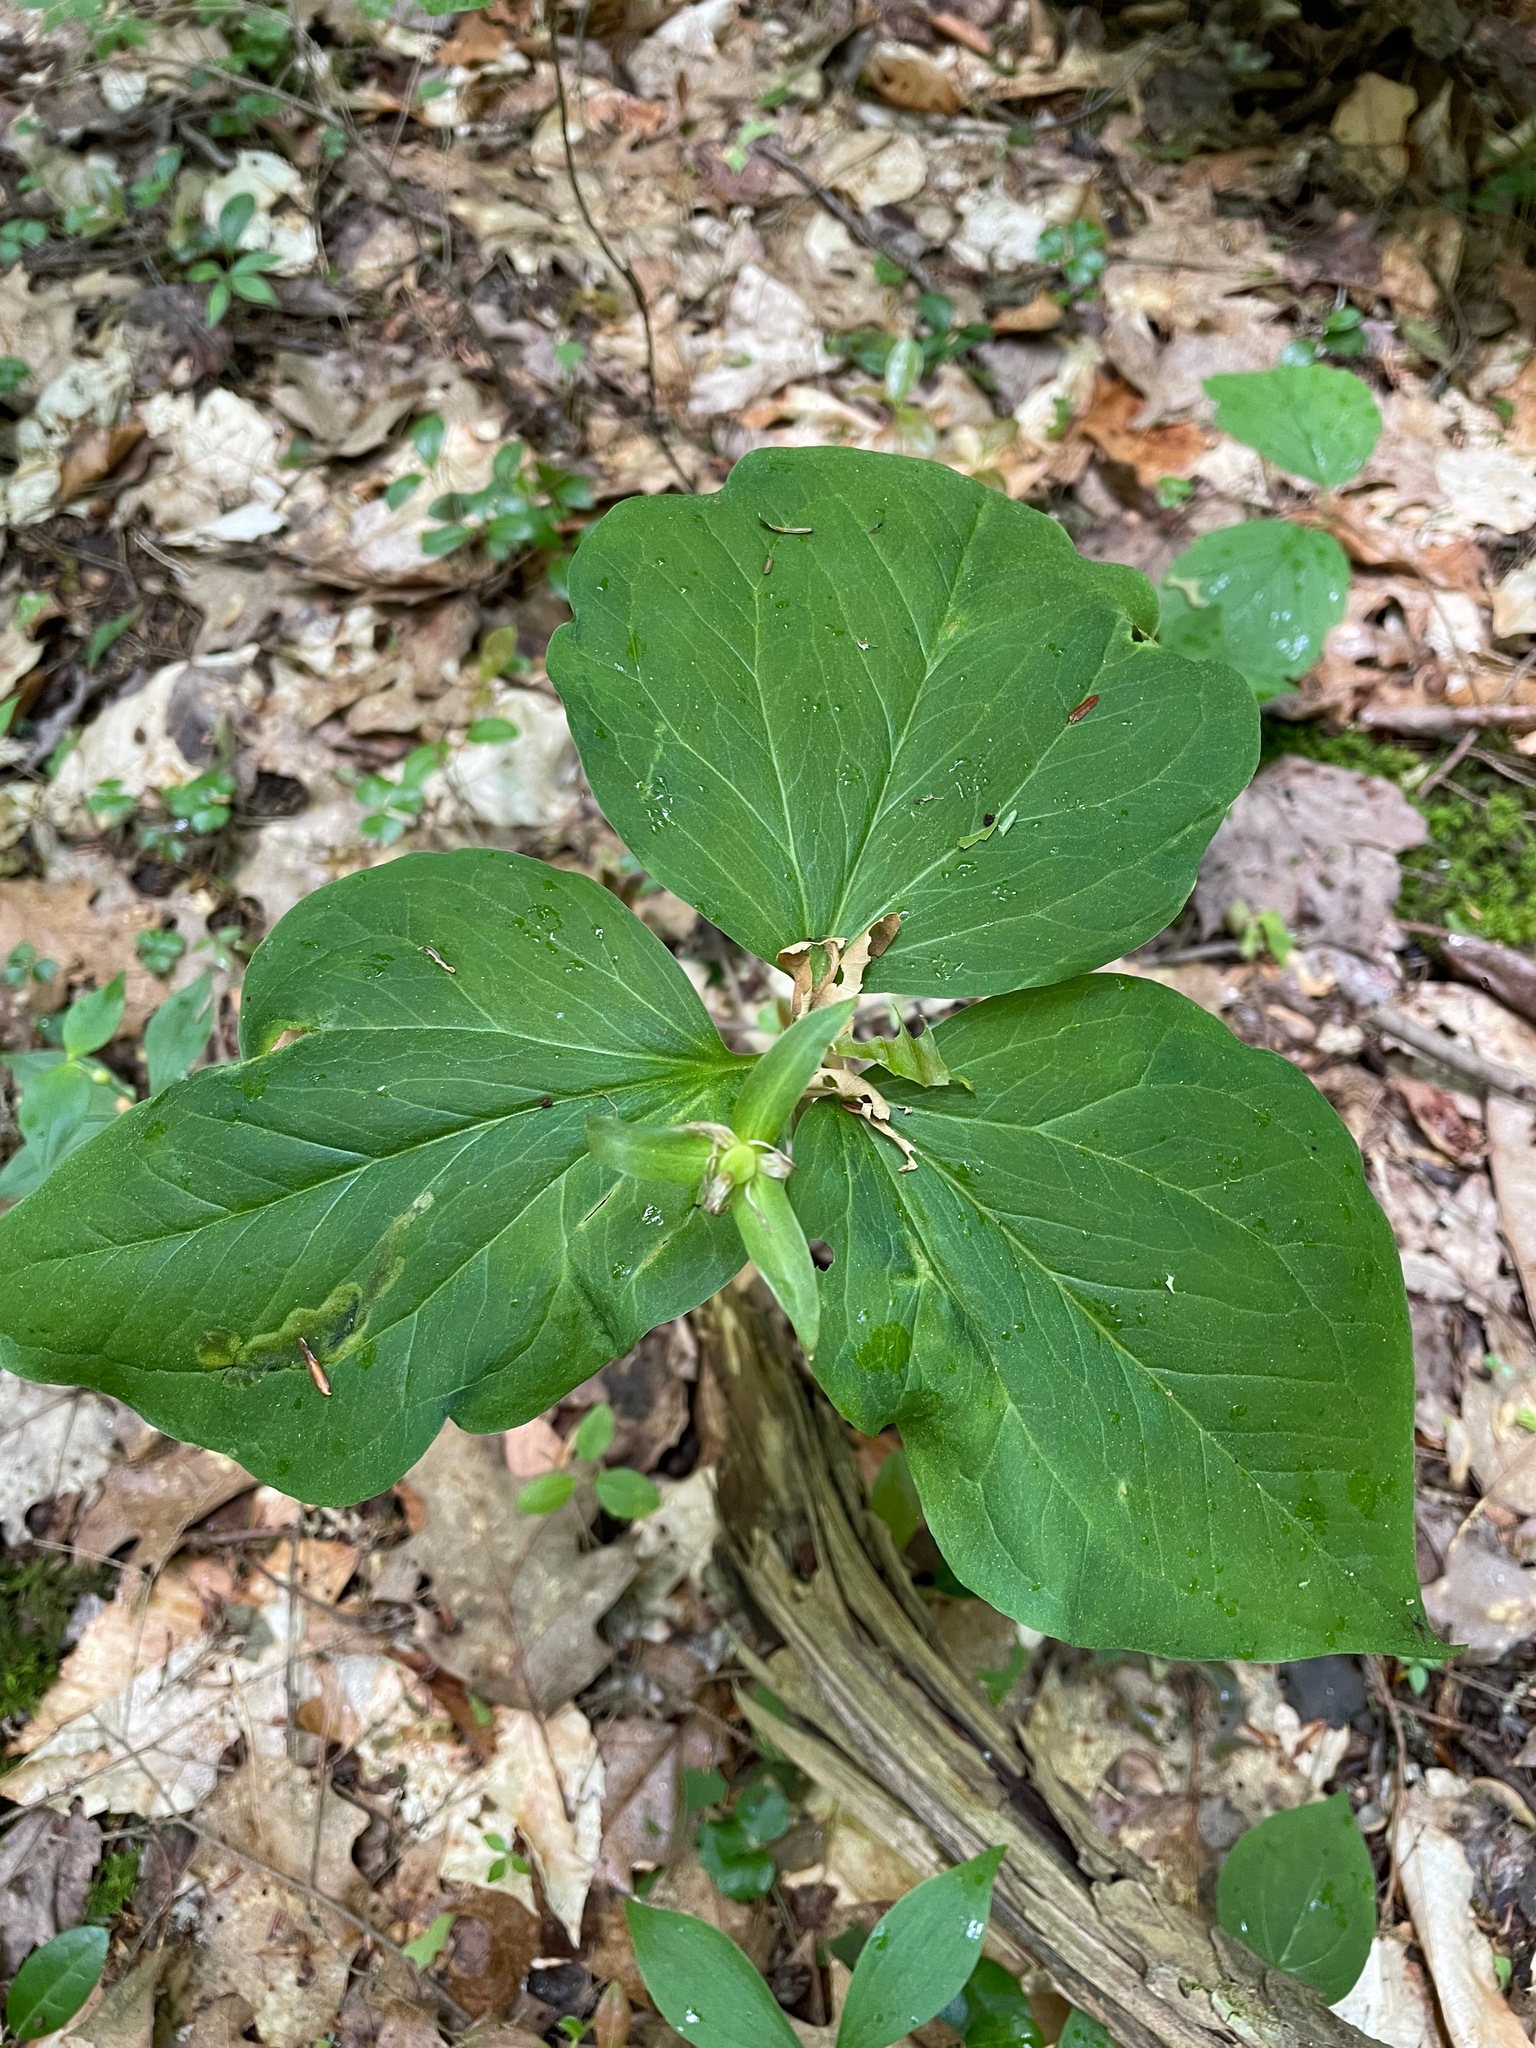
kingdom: Plantae
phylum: Tracheophyta
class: Liliopsida
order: Liliales
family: Melanthiaceae
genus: Trillium
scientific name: Trillium undulatum
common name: Paint trillium
